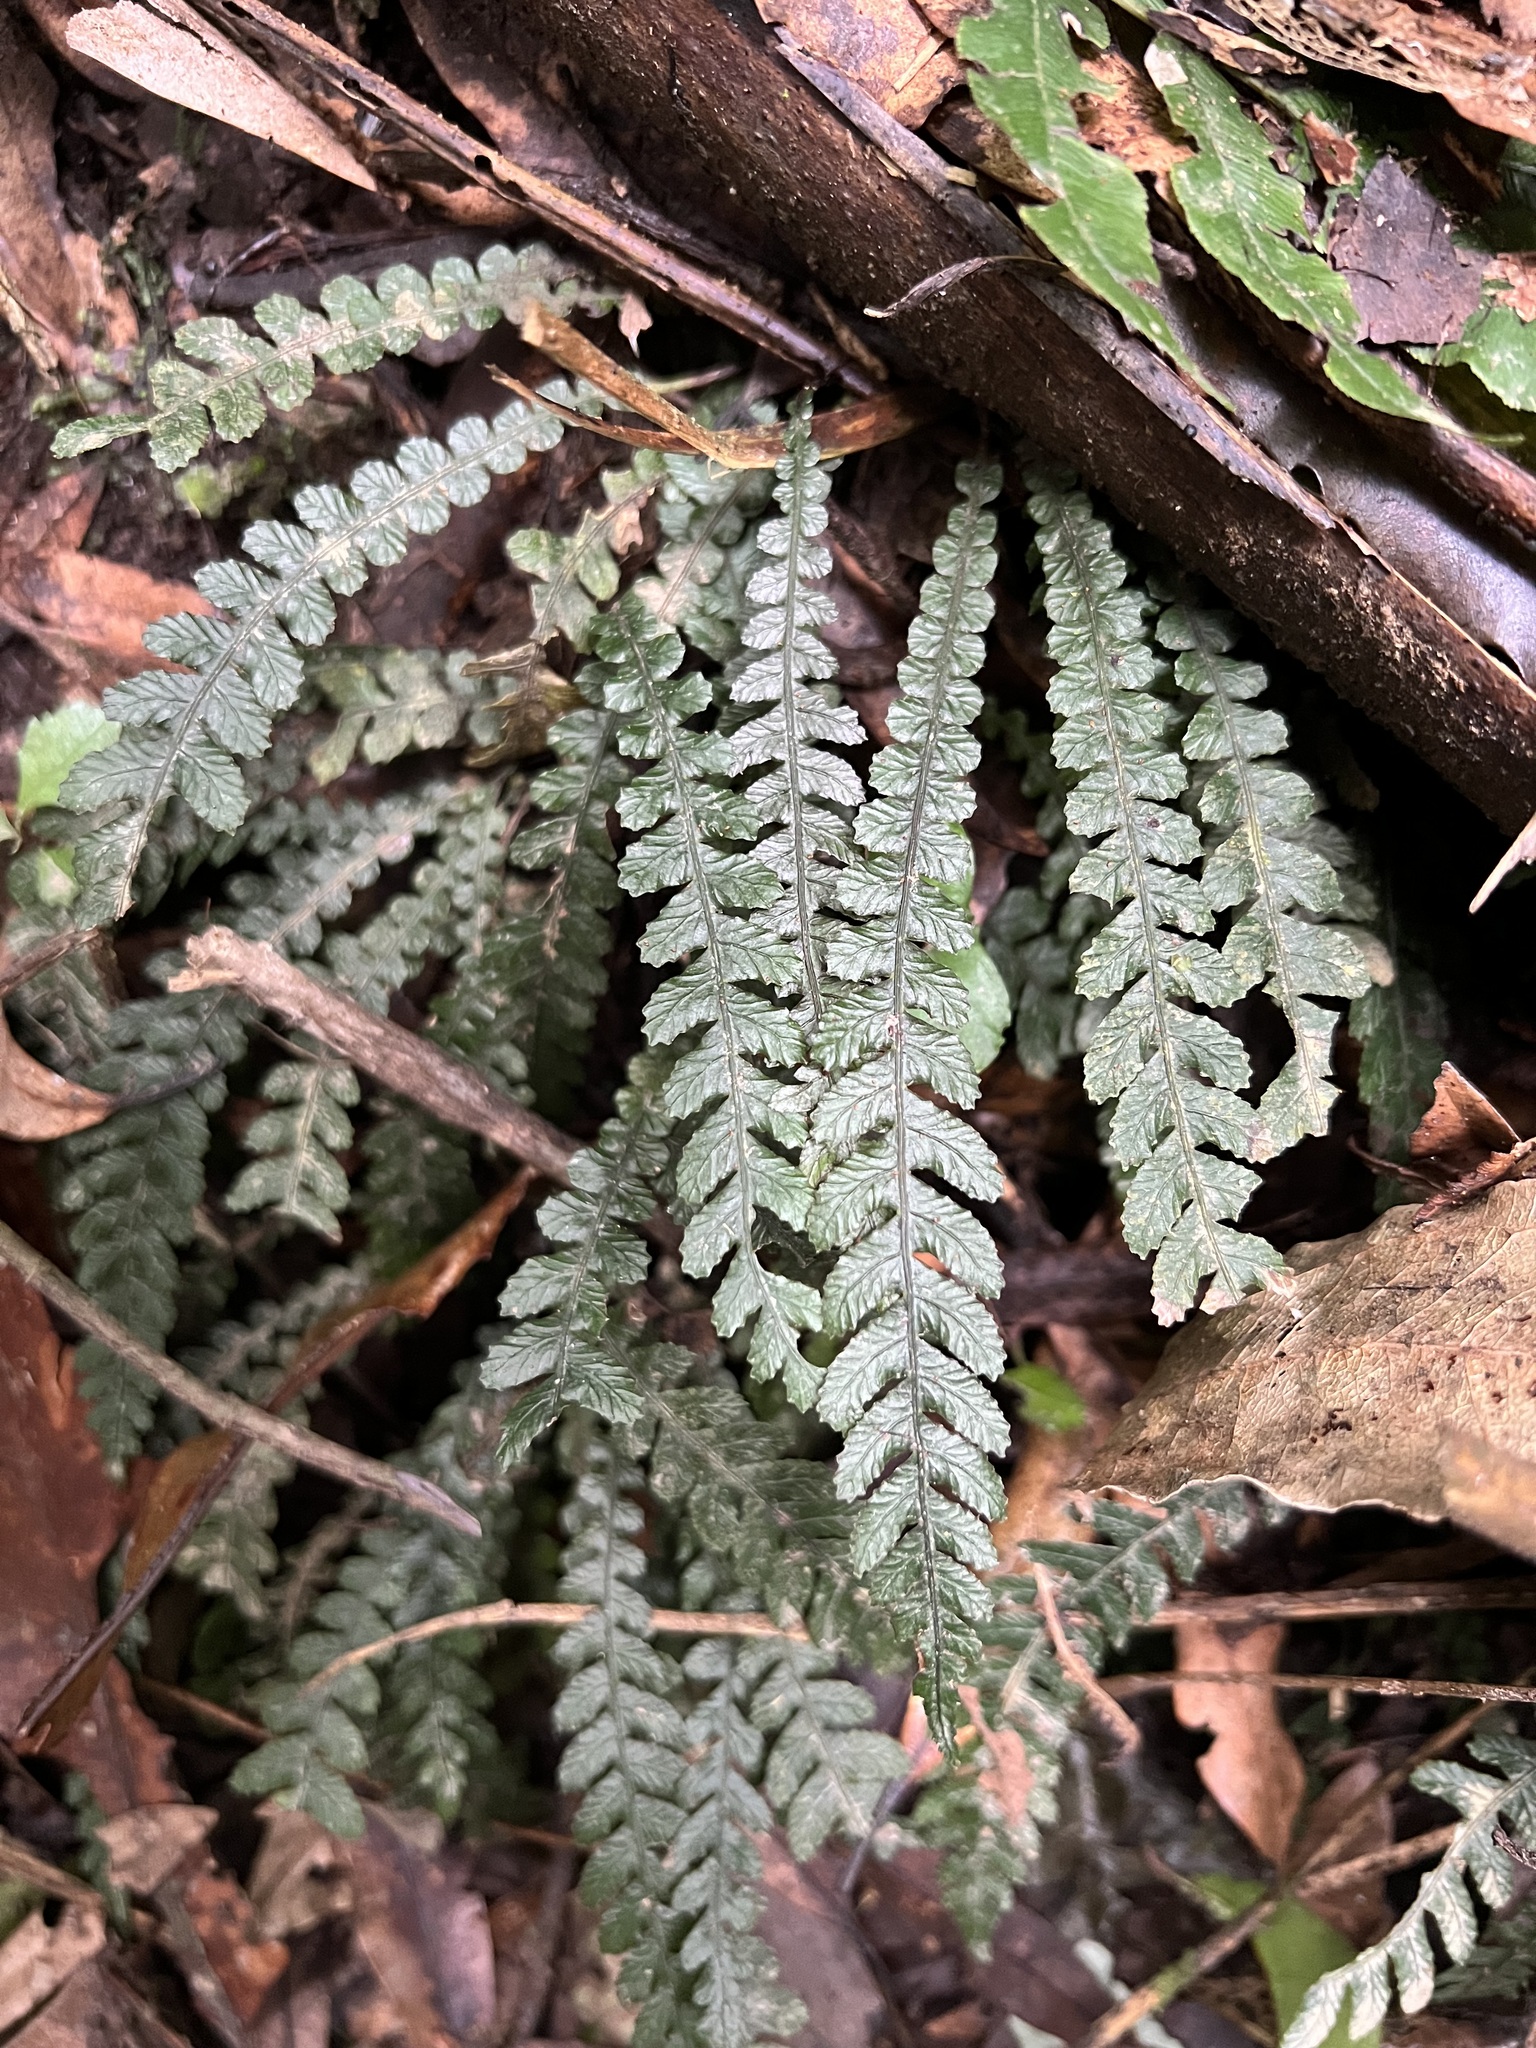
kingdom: Plantae
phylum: Tracheophyta
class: Polypodiopsida
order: Polypodiales
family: Blechnaceae
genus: Austroblechnum
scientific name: Austroblechnum membranaceum
